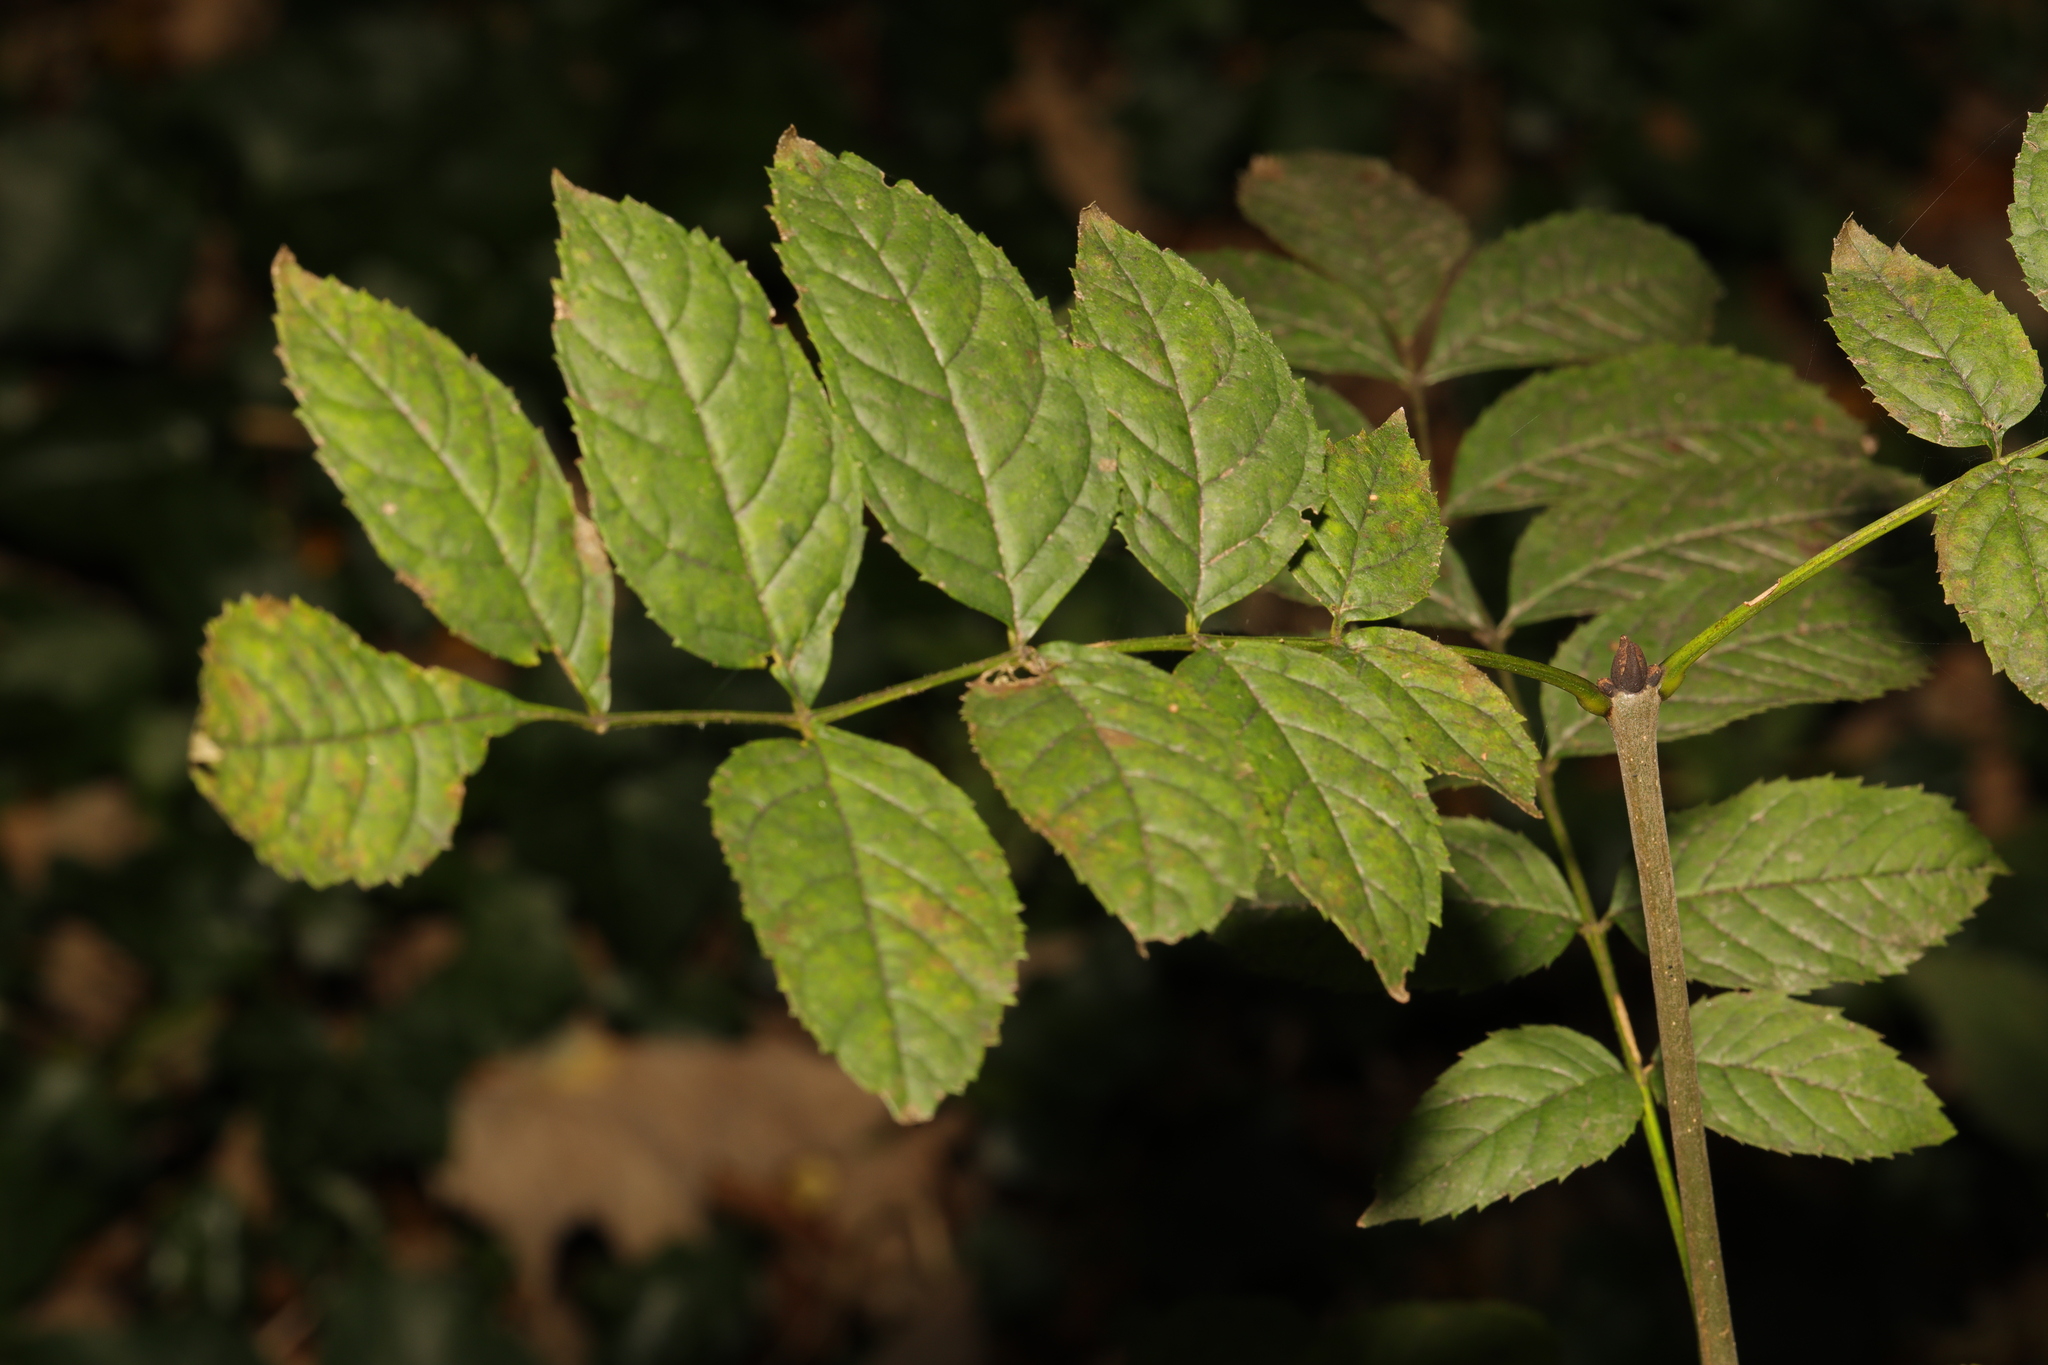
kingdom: Plantae
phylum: Tracheophyta
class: Magnoliopsida
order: Lamiales
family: Oleaceae
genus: Fraxinus
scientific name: Fraxinus excelsior
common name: European ash
